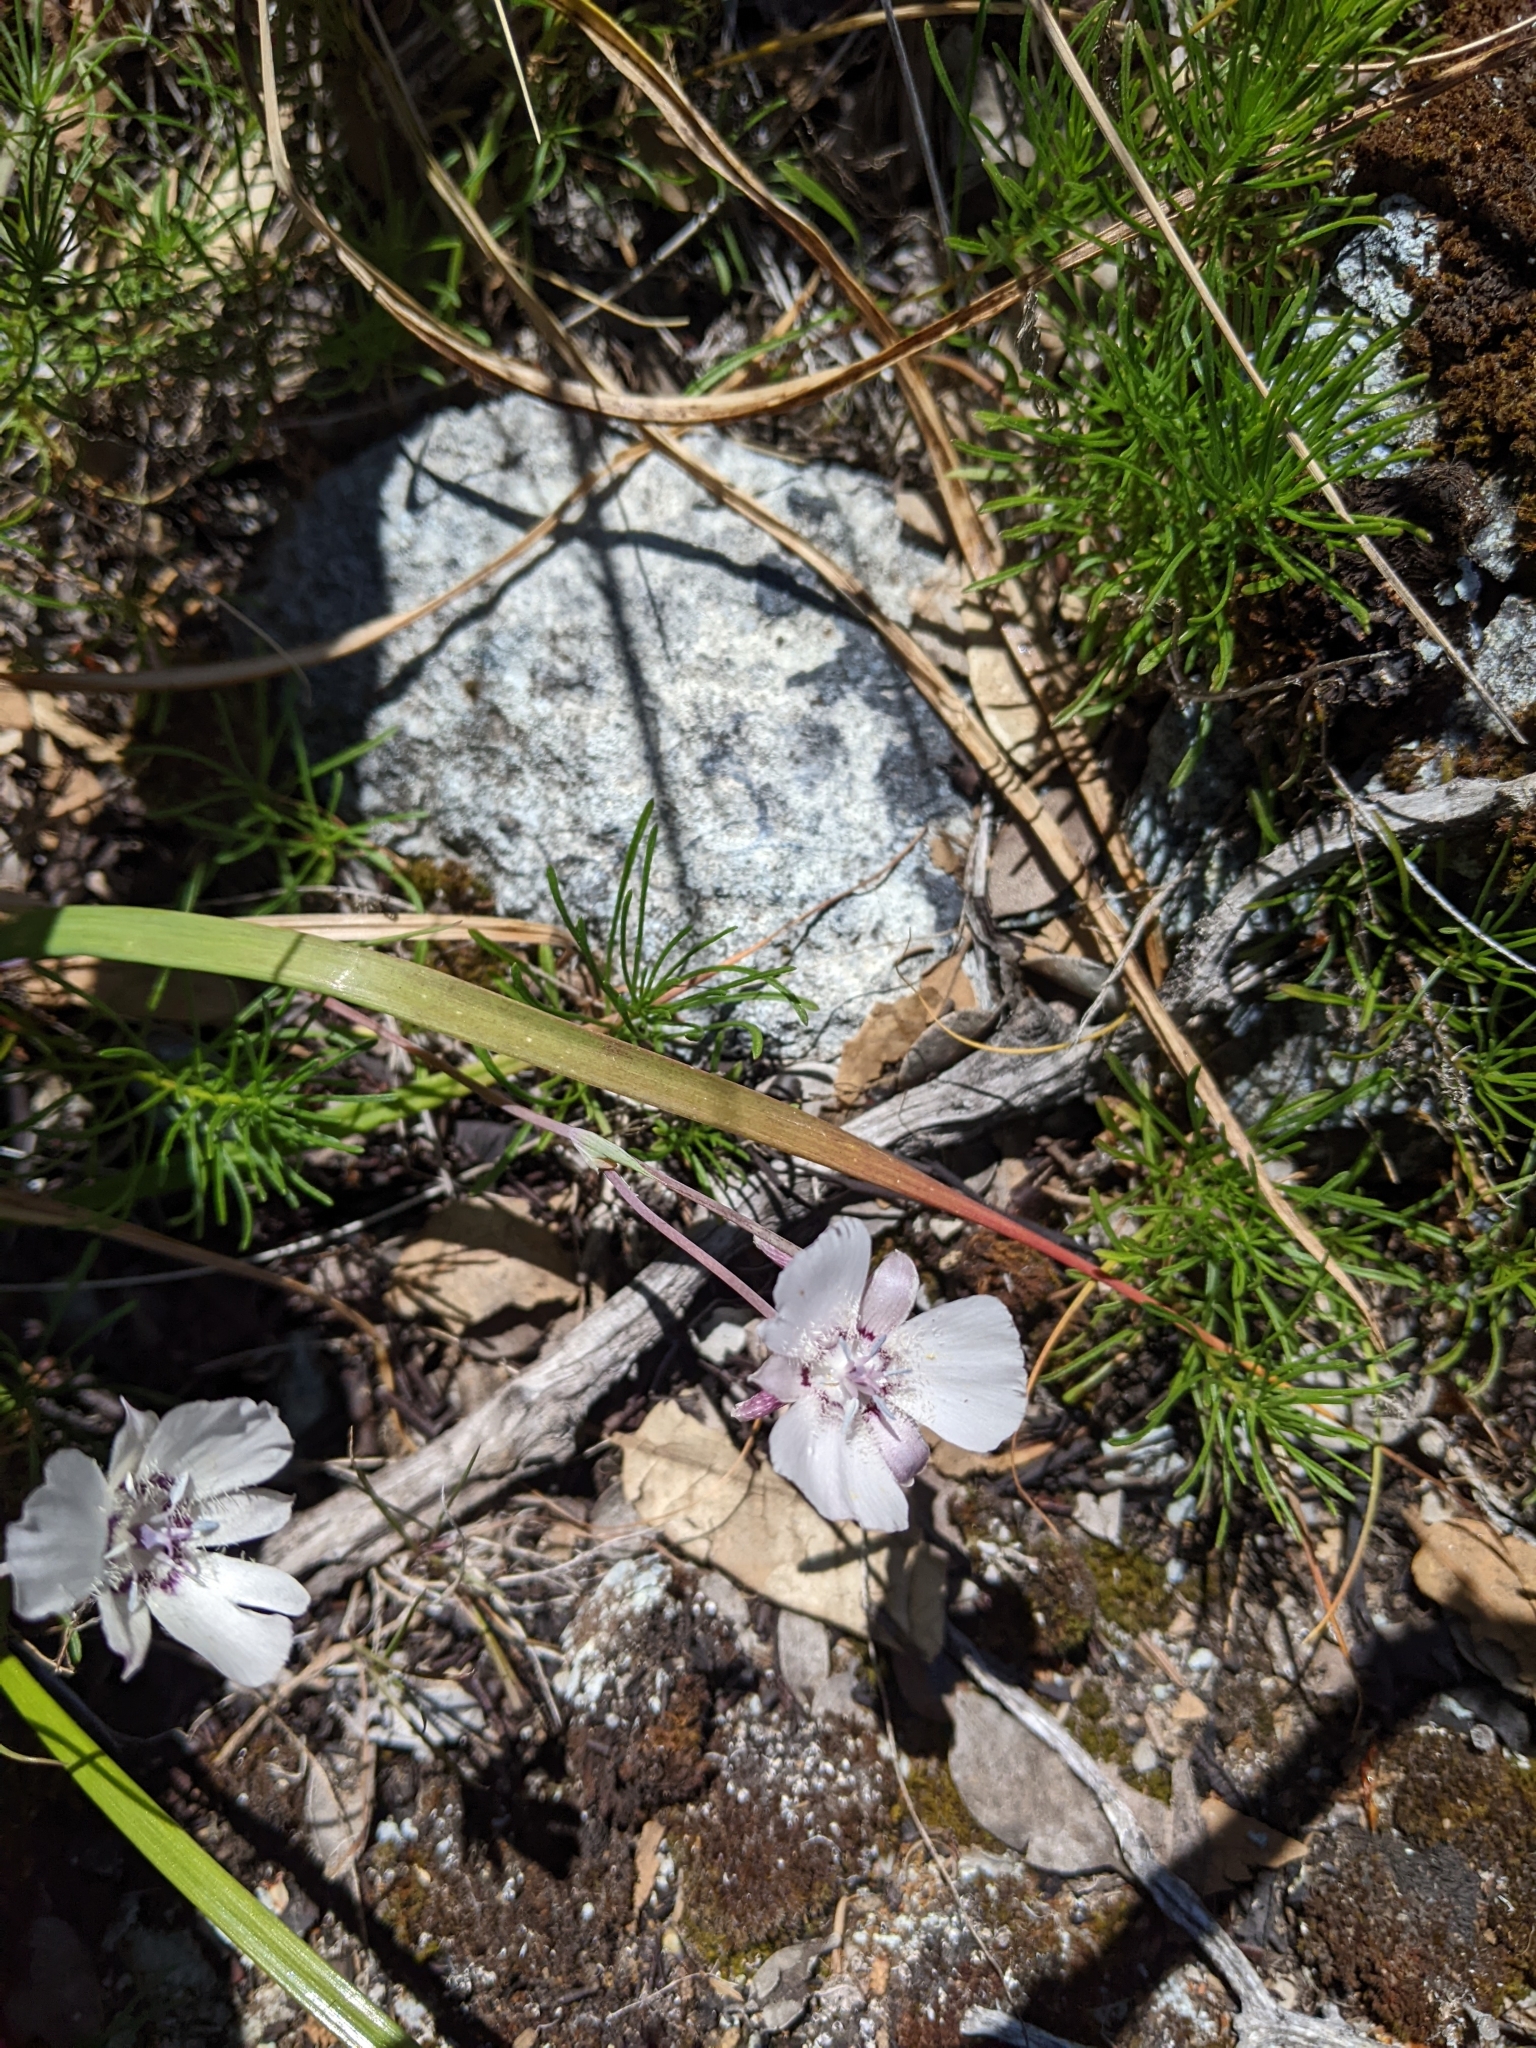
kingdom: Plantae
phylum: Tracheophyta
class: Liliopsida
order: Liliales
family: Liliaceae
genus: Calochortus
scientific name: Calochortus umbellatus
